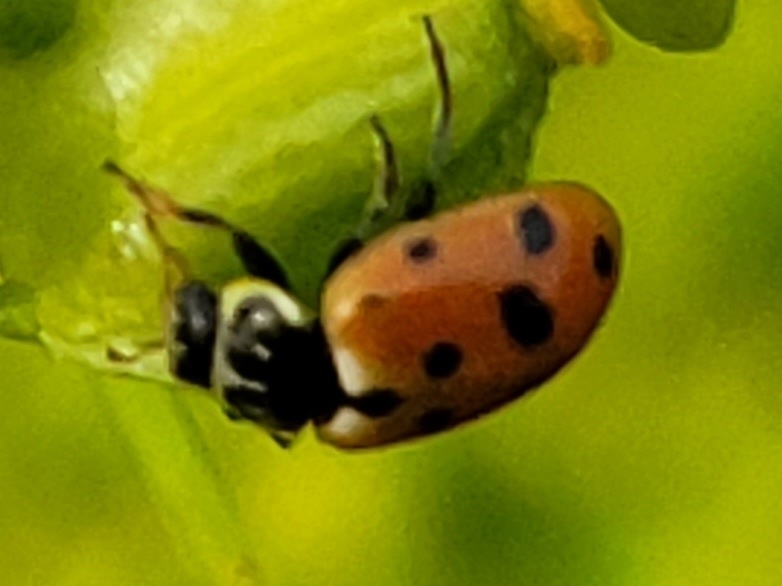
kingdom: Animalia
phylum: Arthropoda
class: Insecta
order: Coleoptera
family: Coccinellidae
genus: Hippodamia
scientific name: Hippodamia variegata
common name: Ladybird beetle
